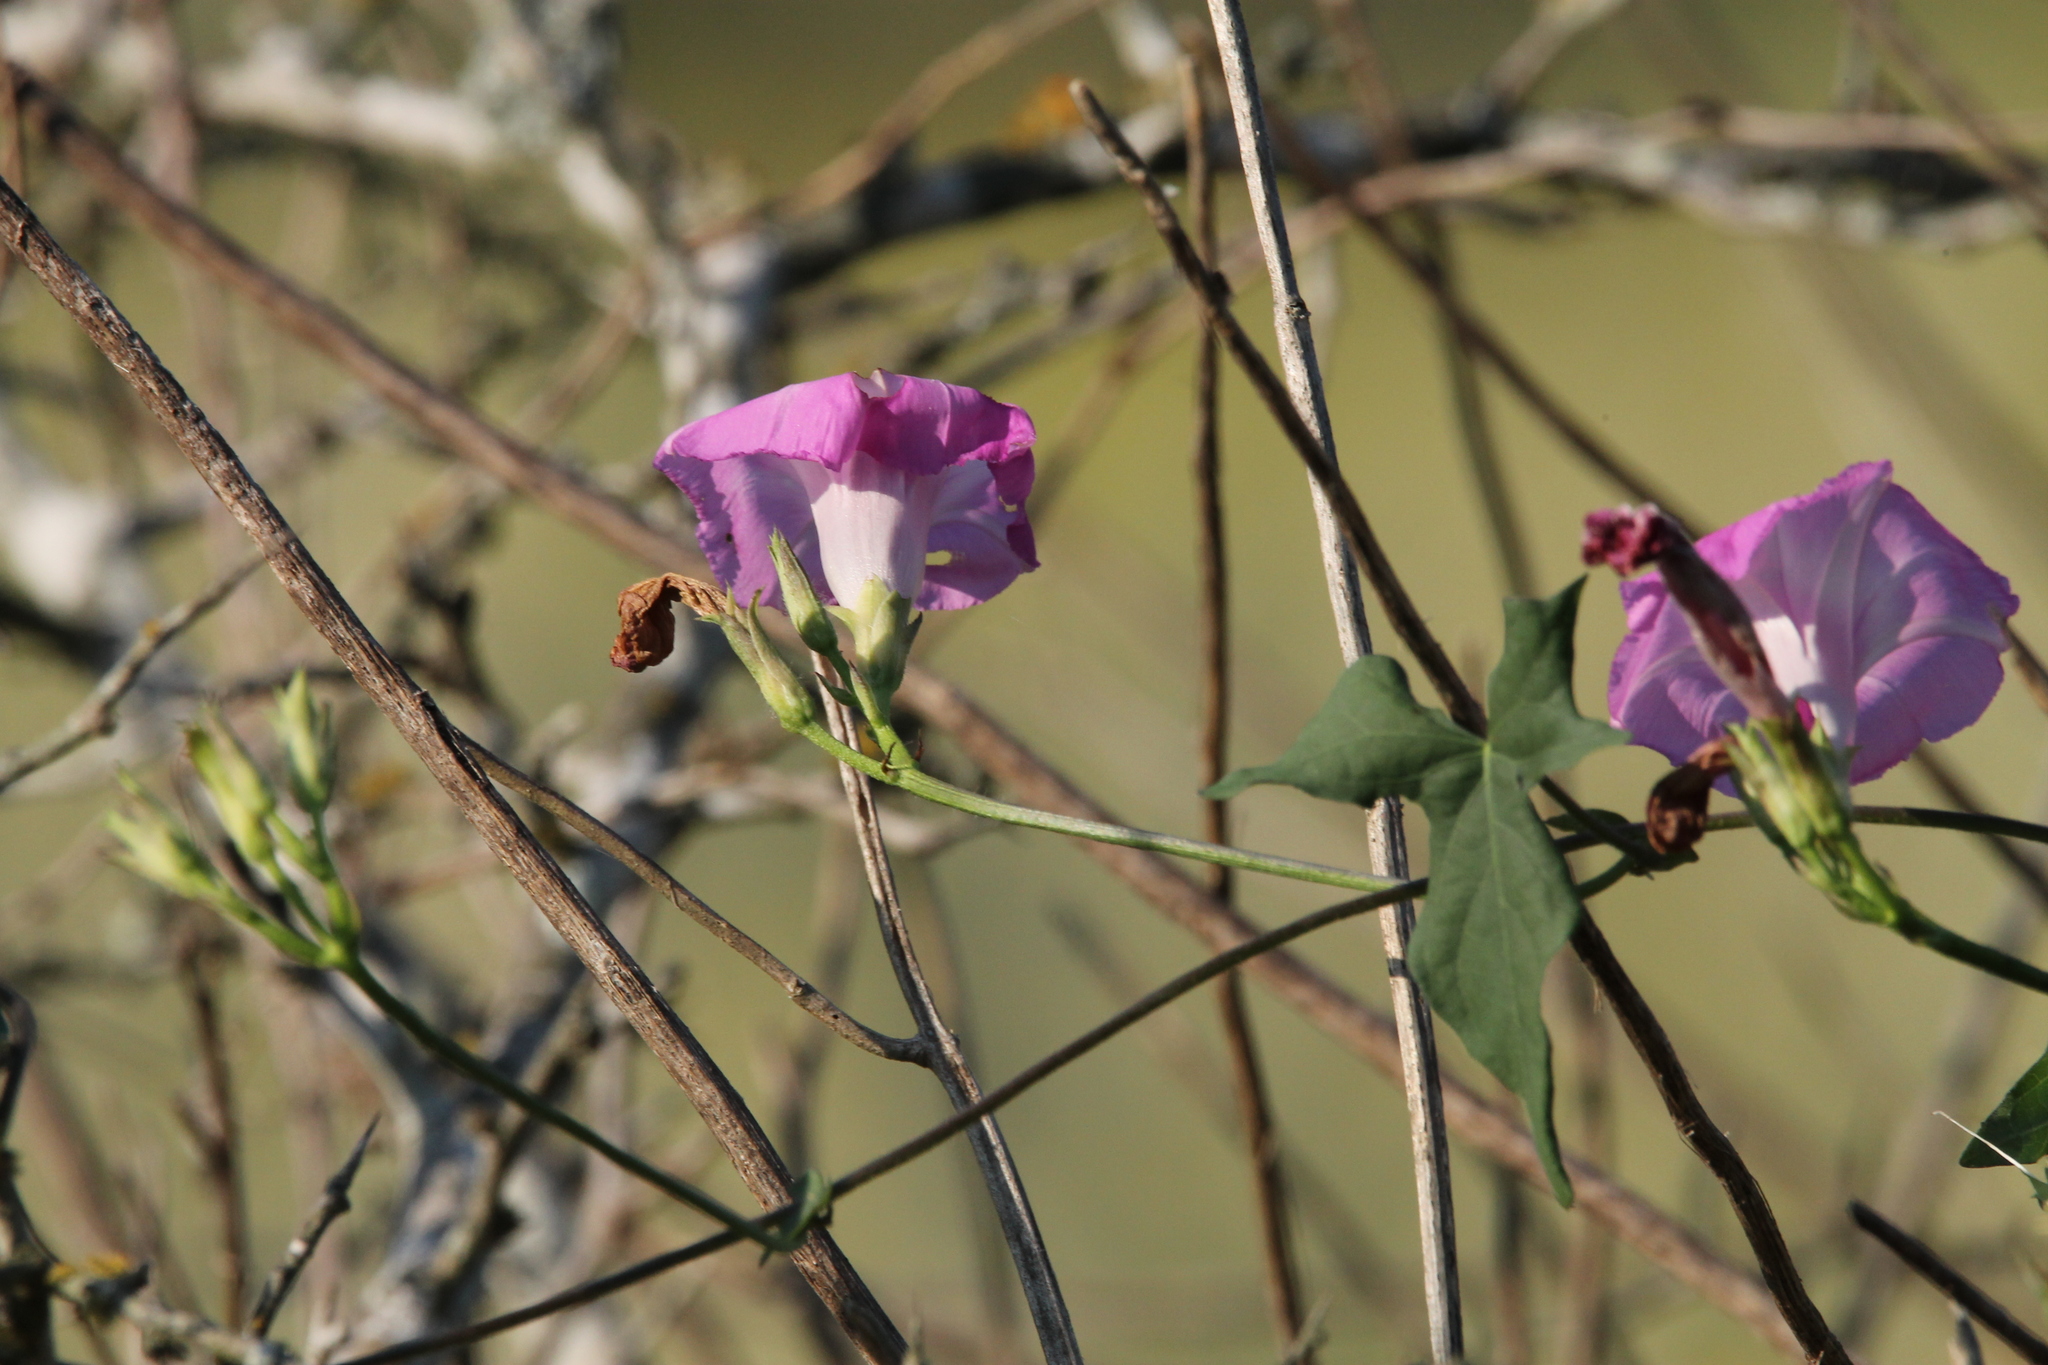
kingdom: Plantae
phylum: Tracheophyta
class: Magnoliopsida
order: Solanales
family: Convolvulaceae
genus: Ipomoea
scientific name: Ipomoea cordatotriloba
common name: Cotton morning glory
